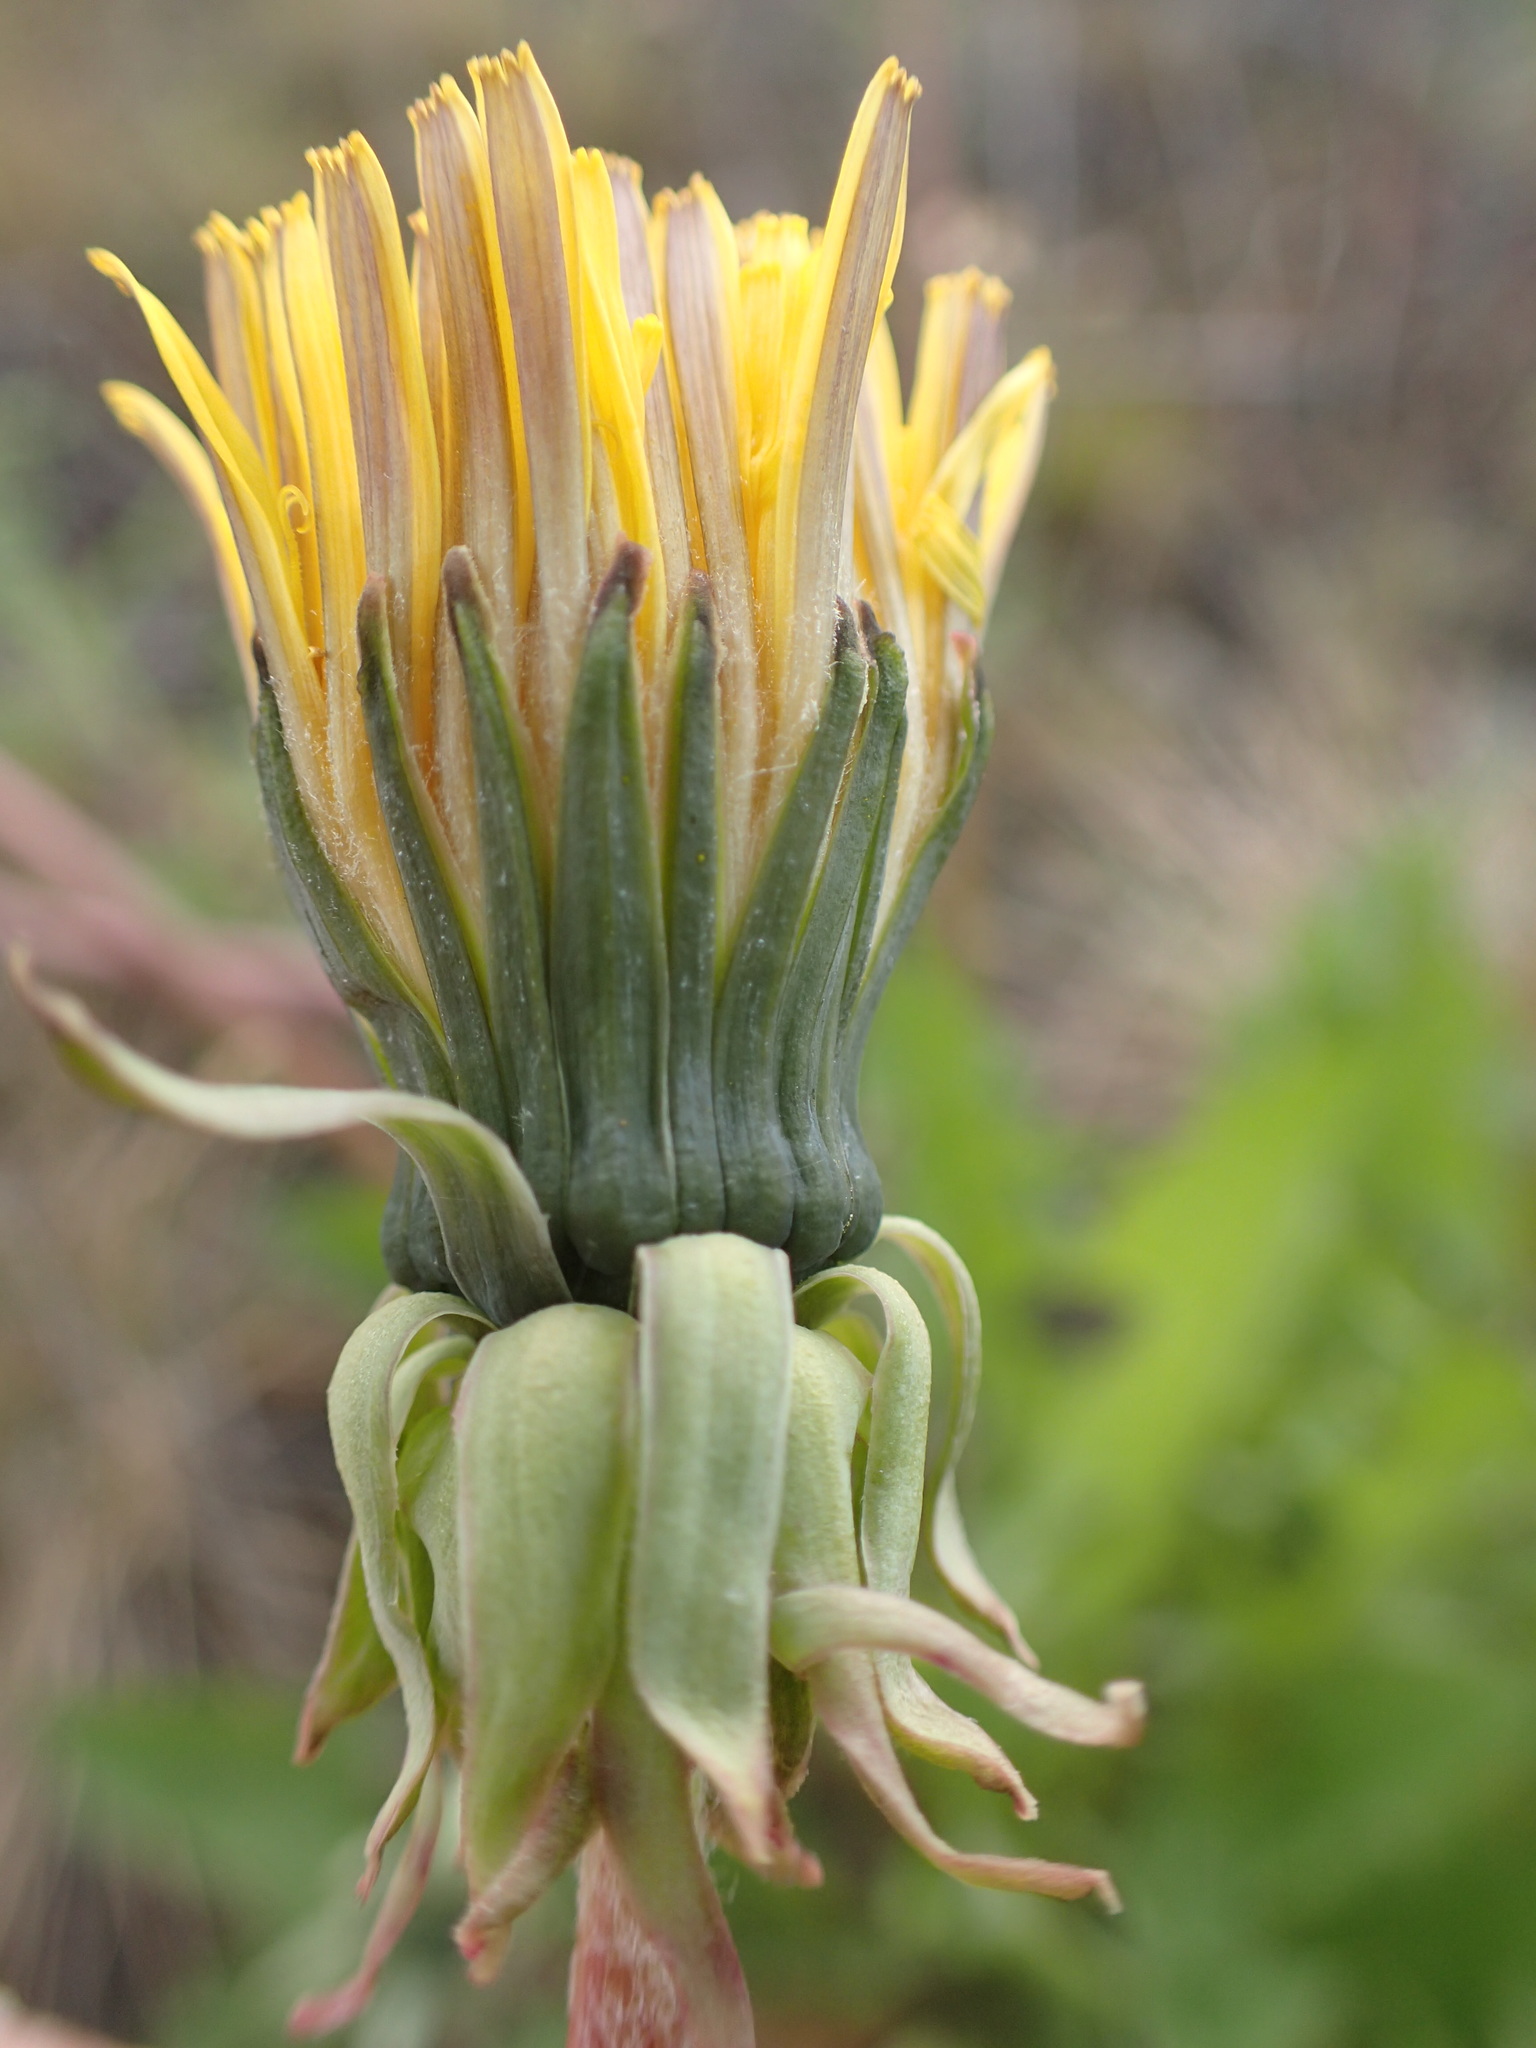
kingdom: Plantae
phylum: Tracheophyta
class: Magnoliopsida
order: Asterales
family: Asteraceae
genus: Taraxacum
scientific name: Taraxacum officinale
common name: Common dandelion
